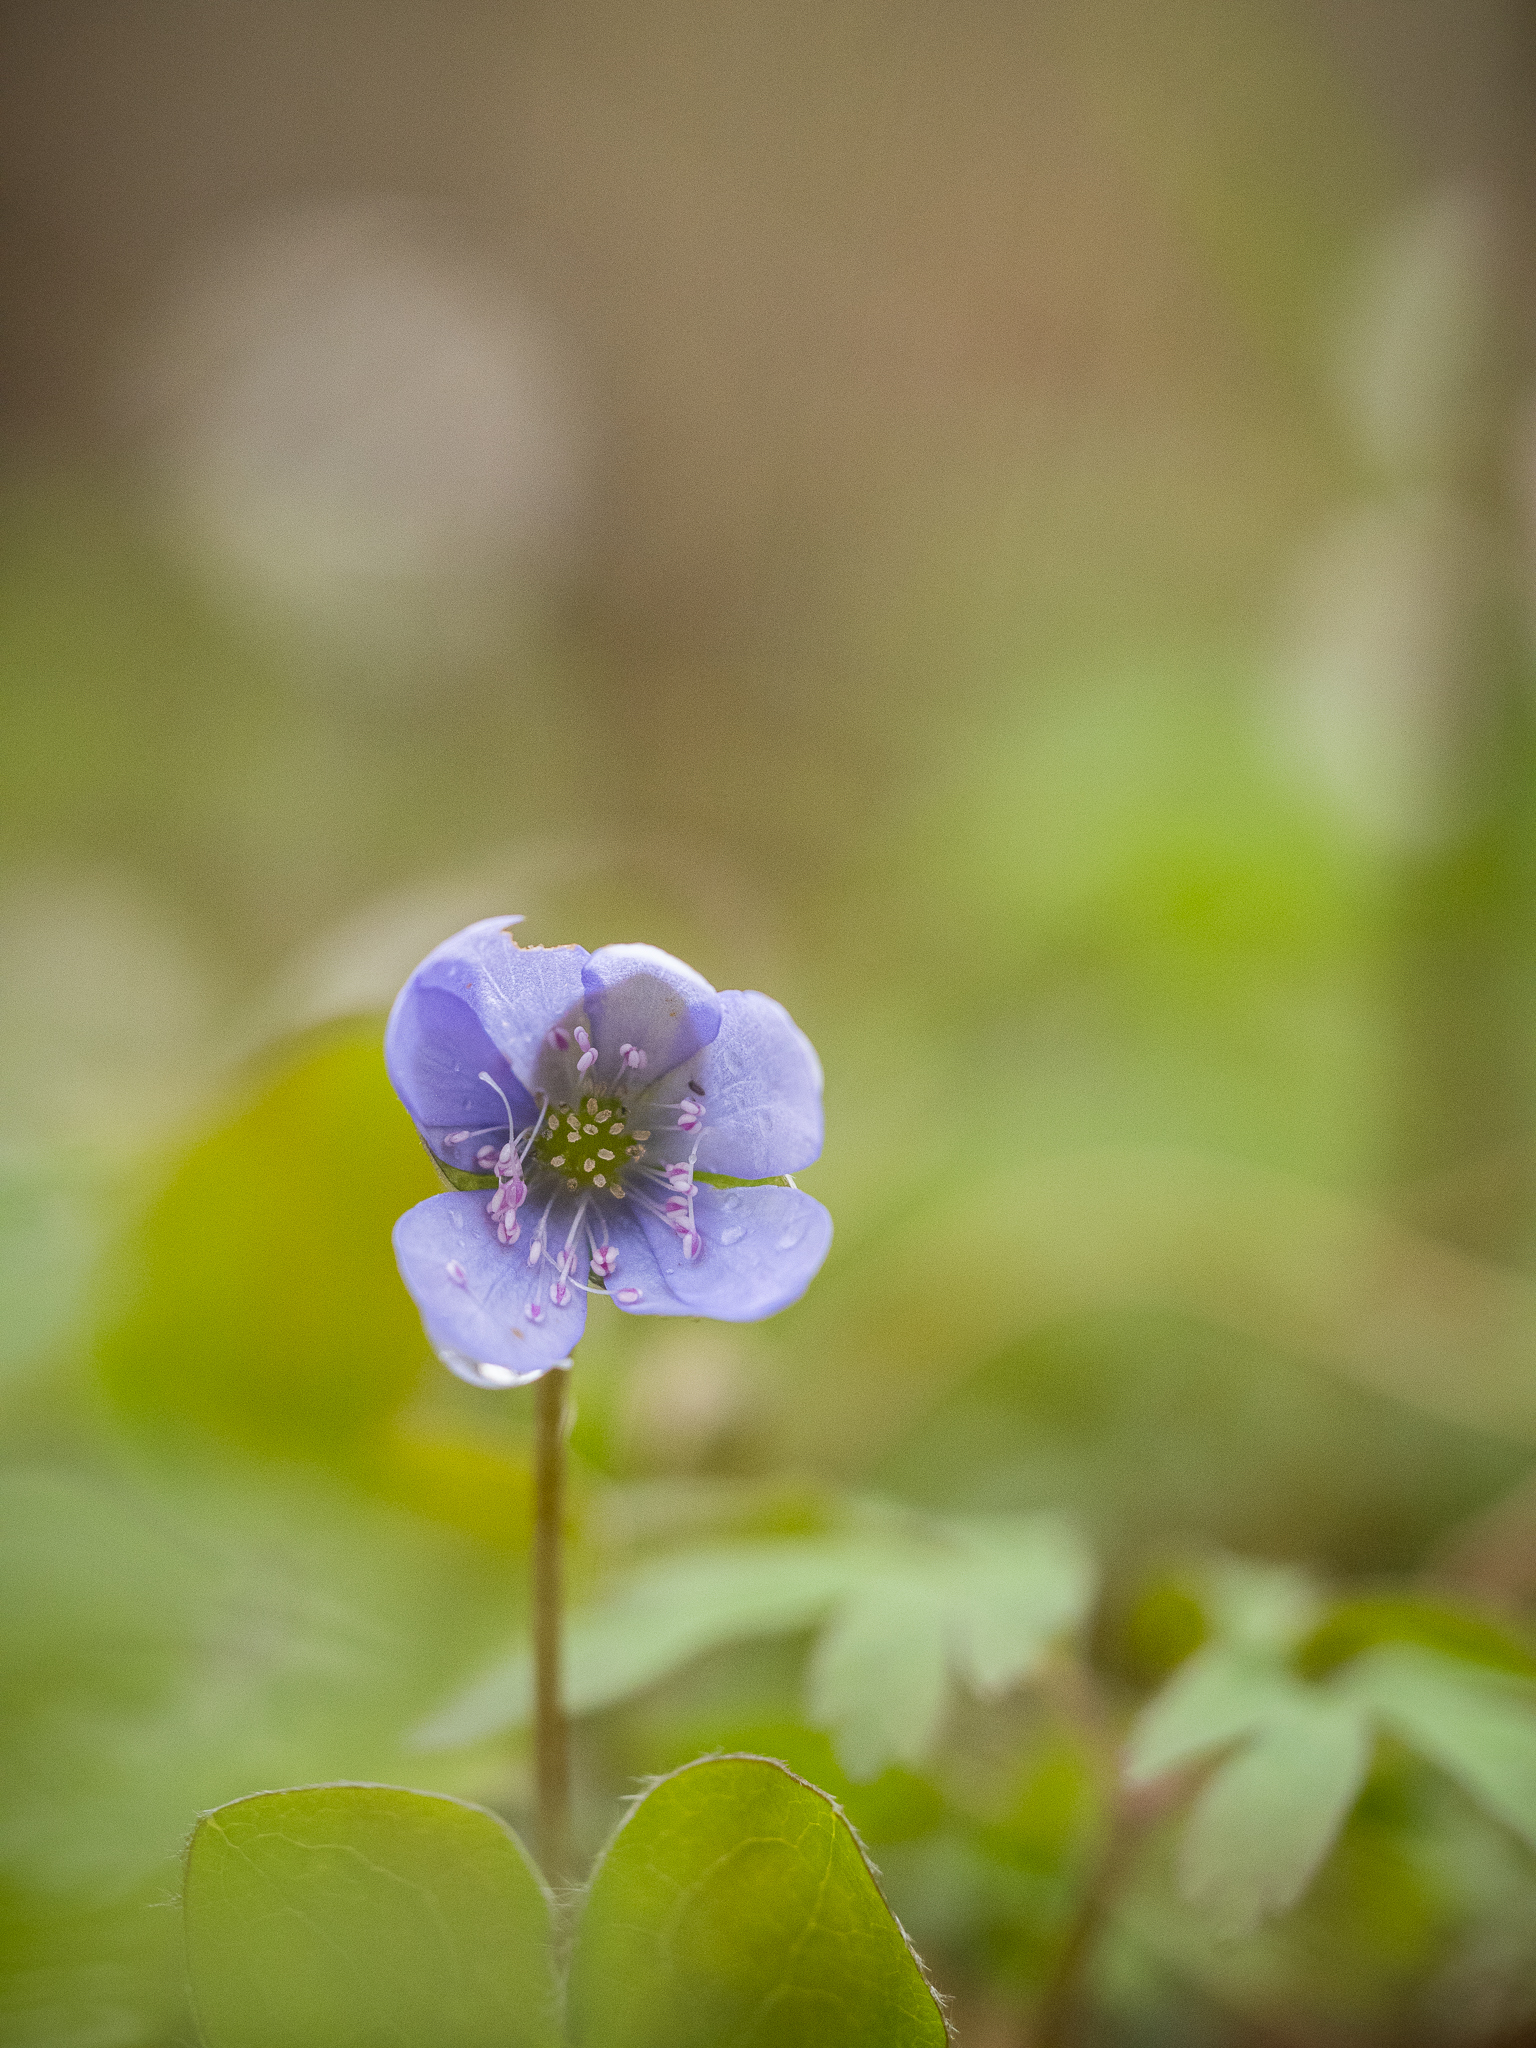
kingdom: Plantae
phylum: Tracheophyta
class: Magnoliopsida
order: Ranunculales
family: Ranunculaceae
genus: Hepatica
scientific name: Hepatica nobilis
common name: Liverleaf
